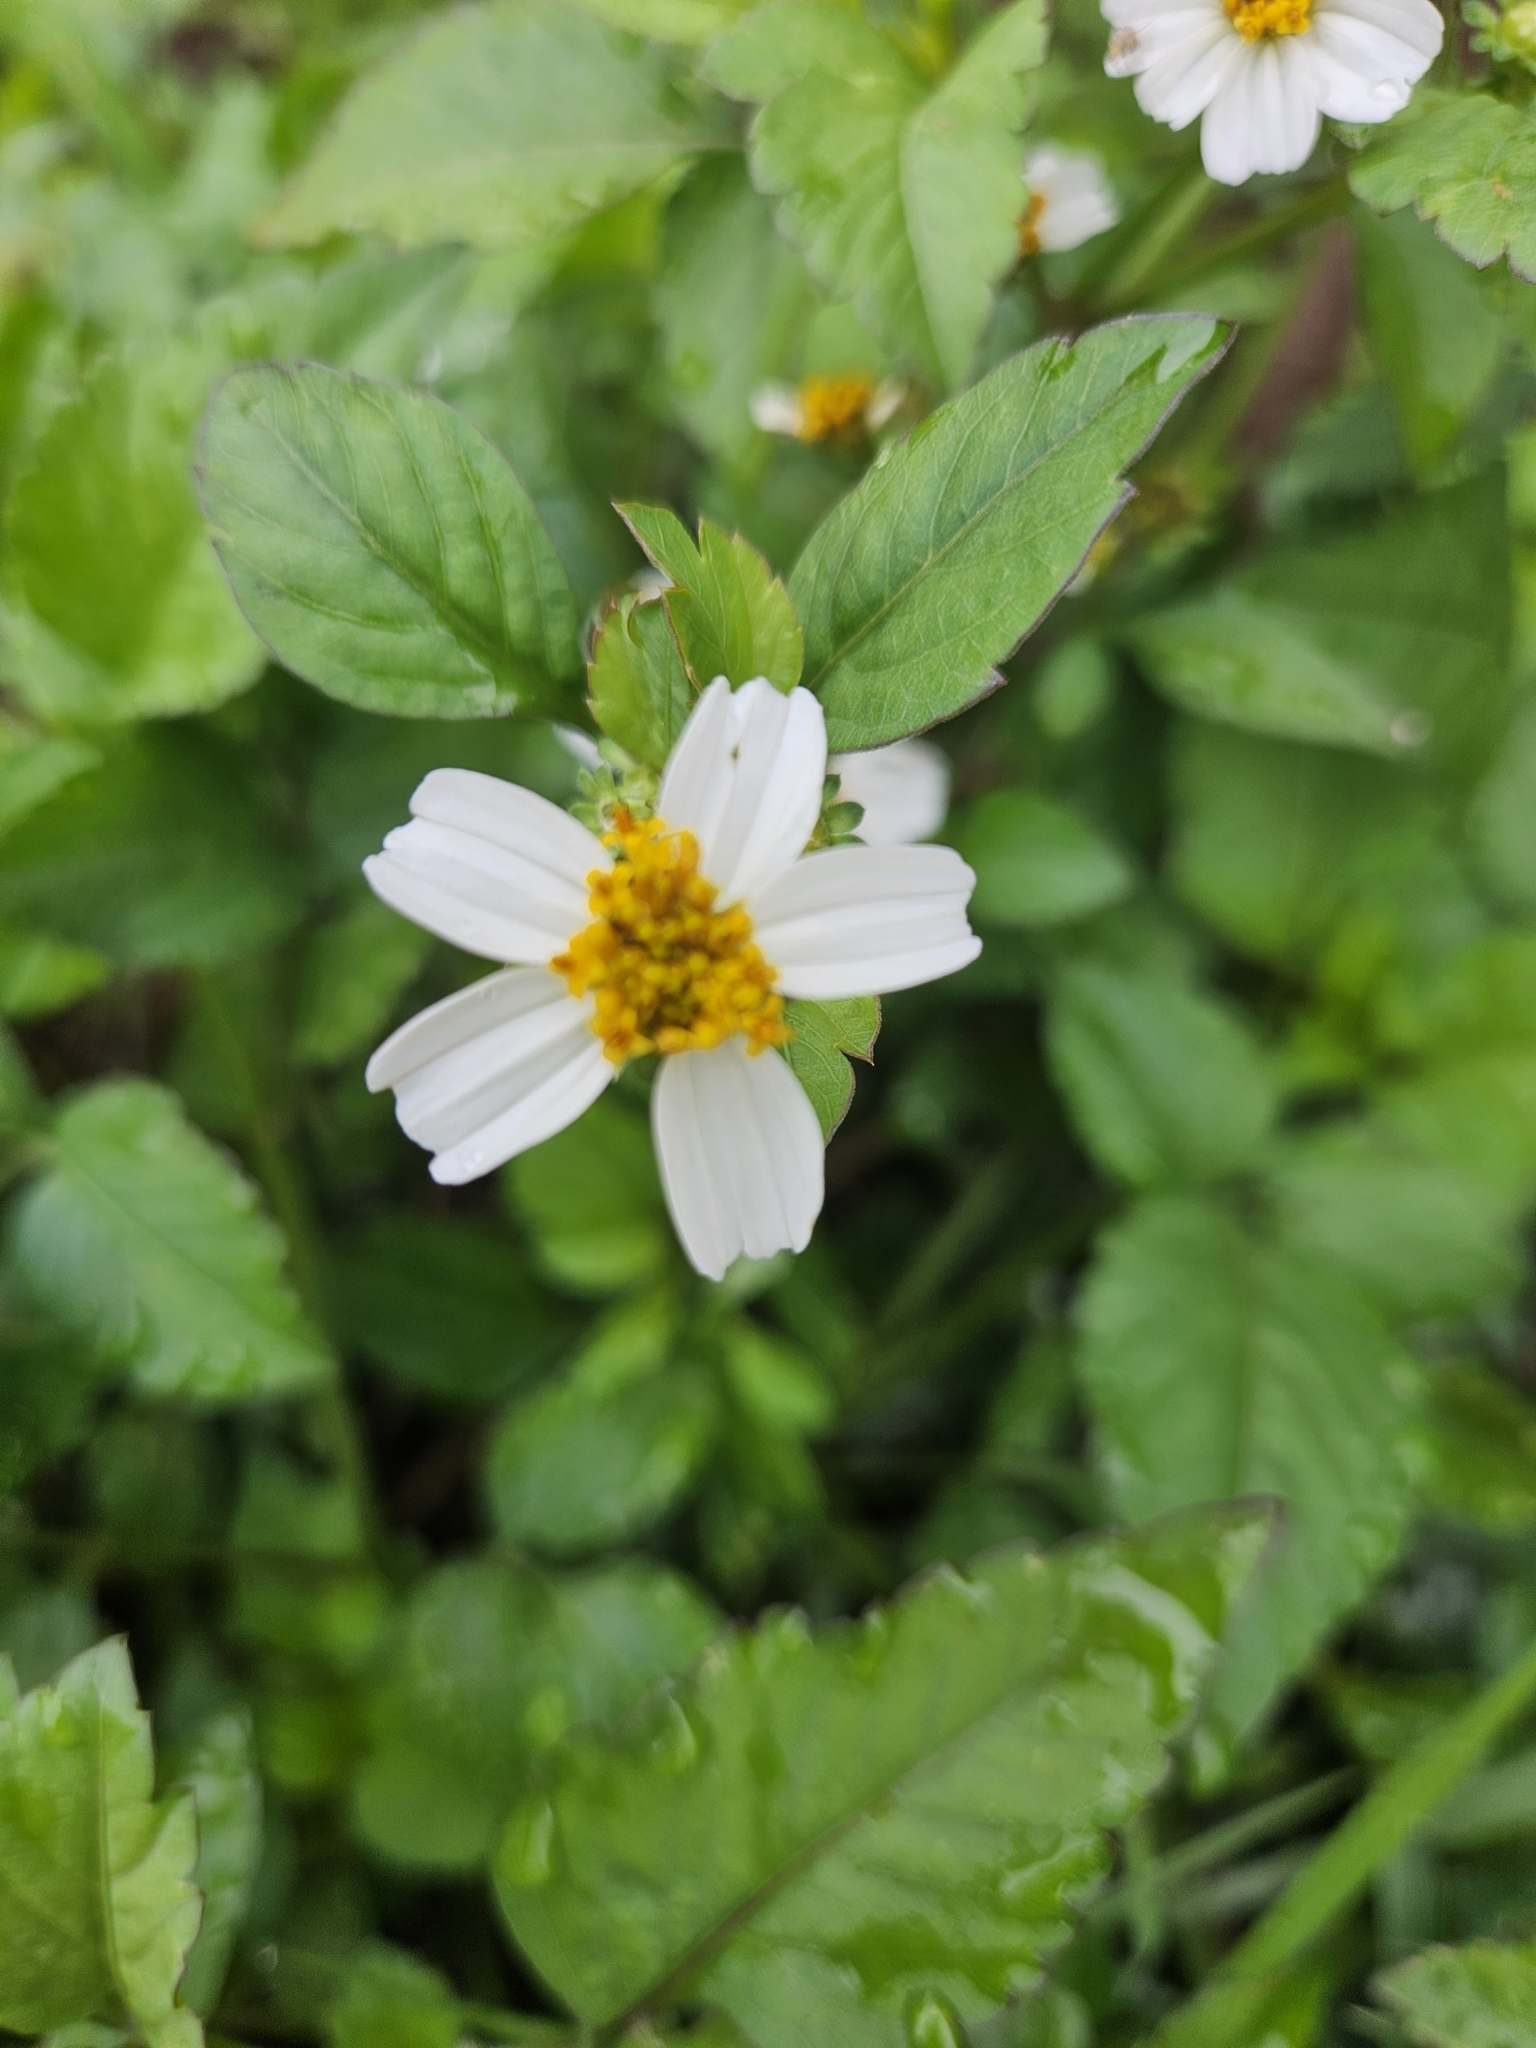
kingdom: Plantae
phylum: Tracheophyta
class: Magnoliopsida
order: Asterales
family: Asteraceae
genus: Bidens
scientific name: Bidens alba
